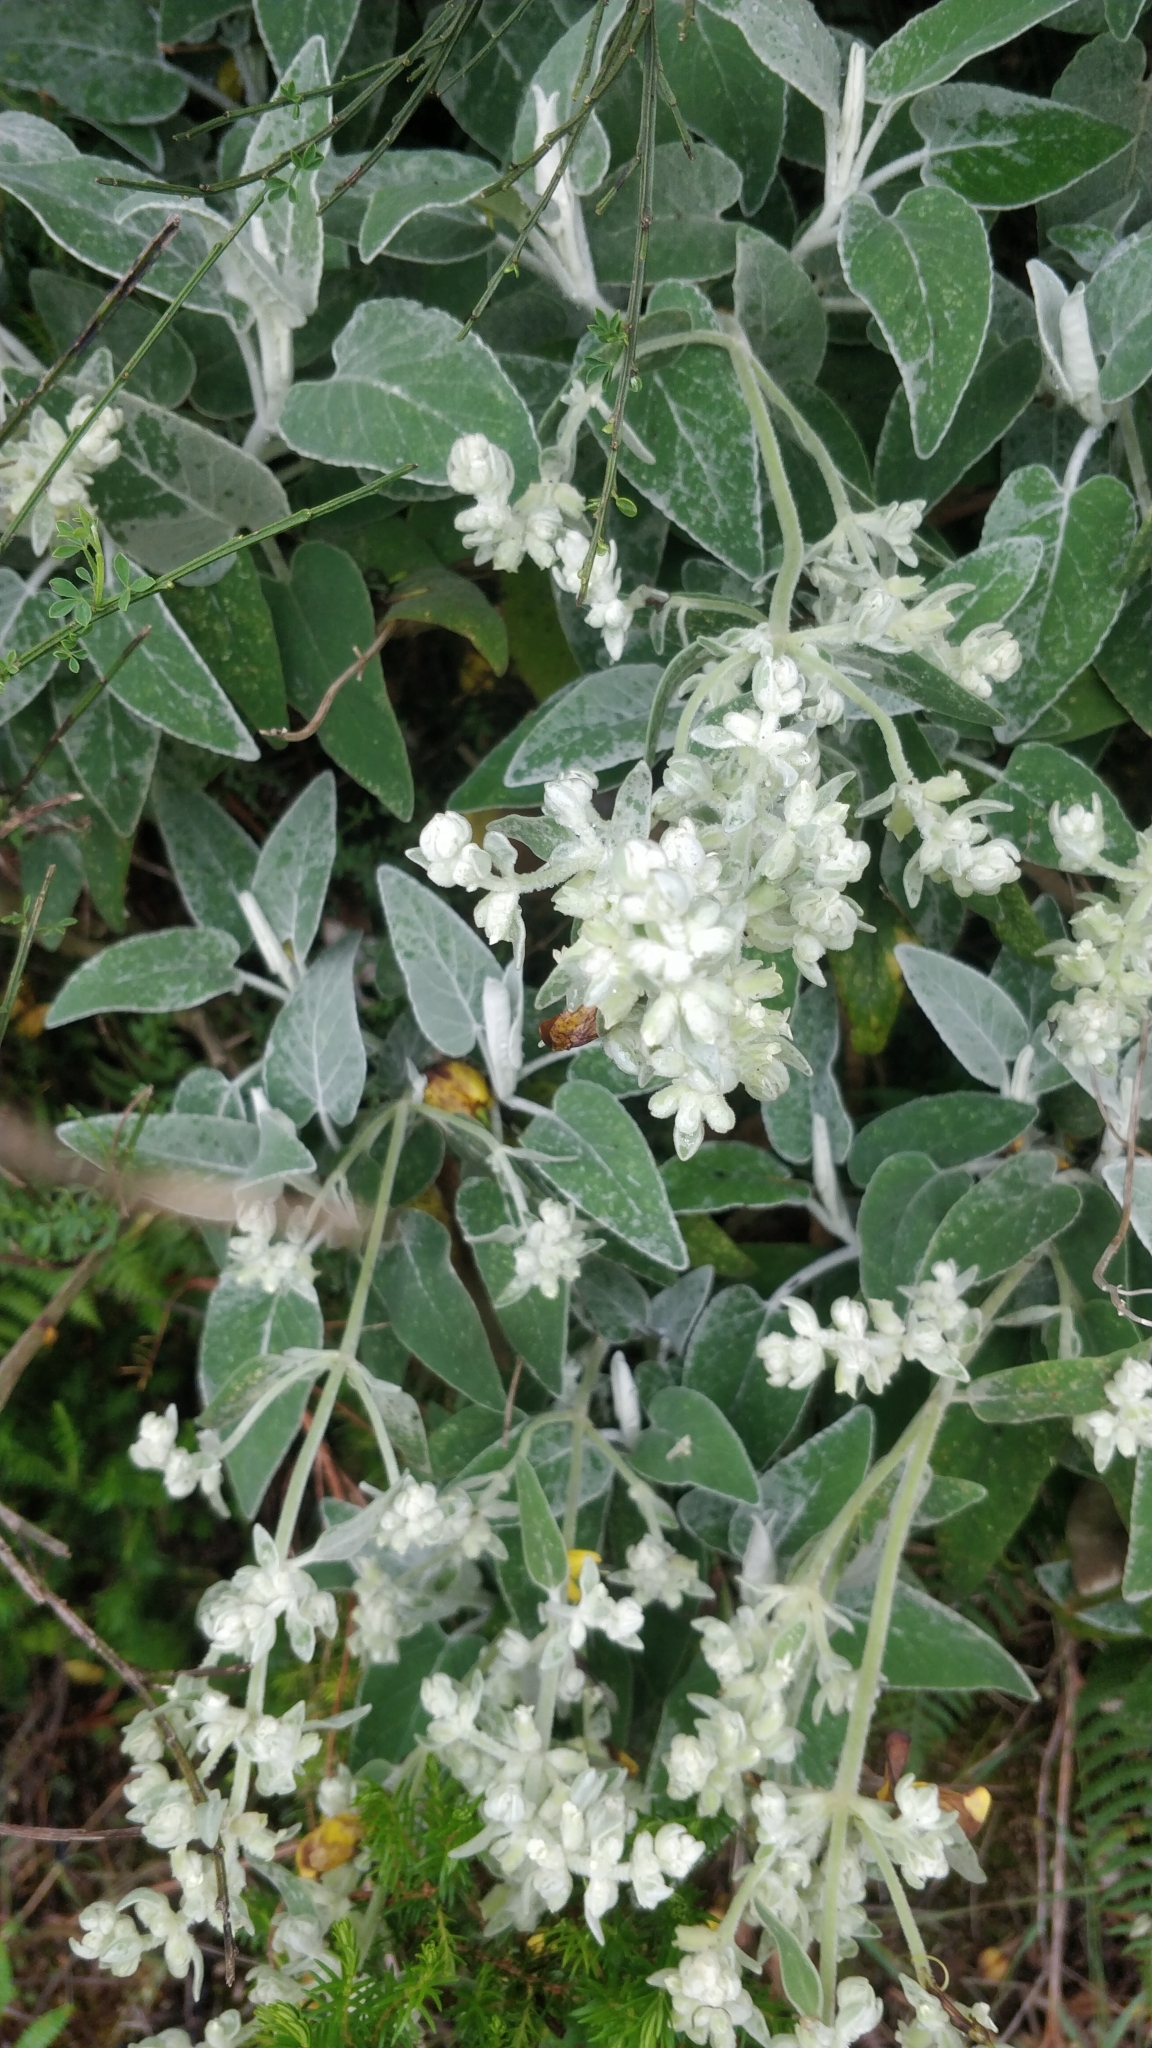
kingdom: Plantae
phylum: Tracheophyta
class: Magnoliopsida
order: Lamiales
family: Lamiaceae
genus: Sideritis
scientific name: Sideritis candicans
